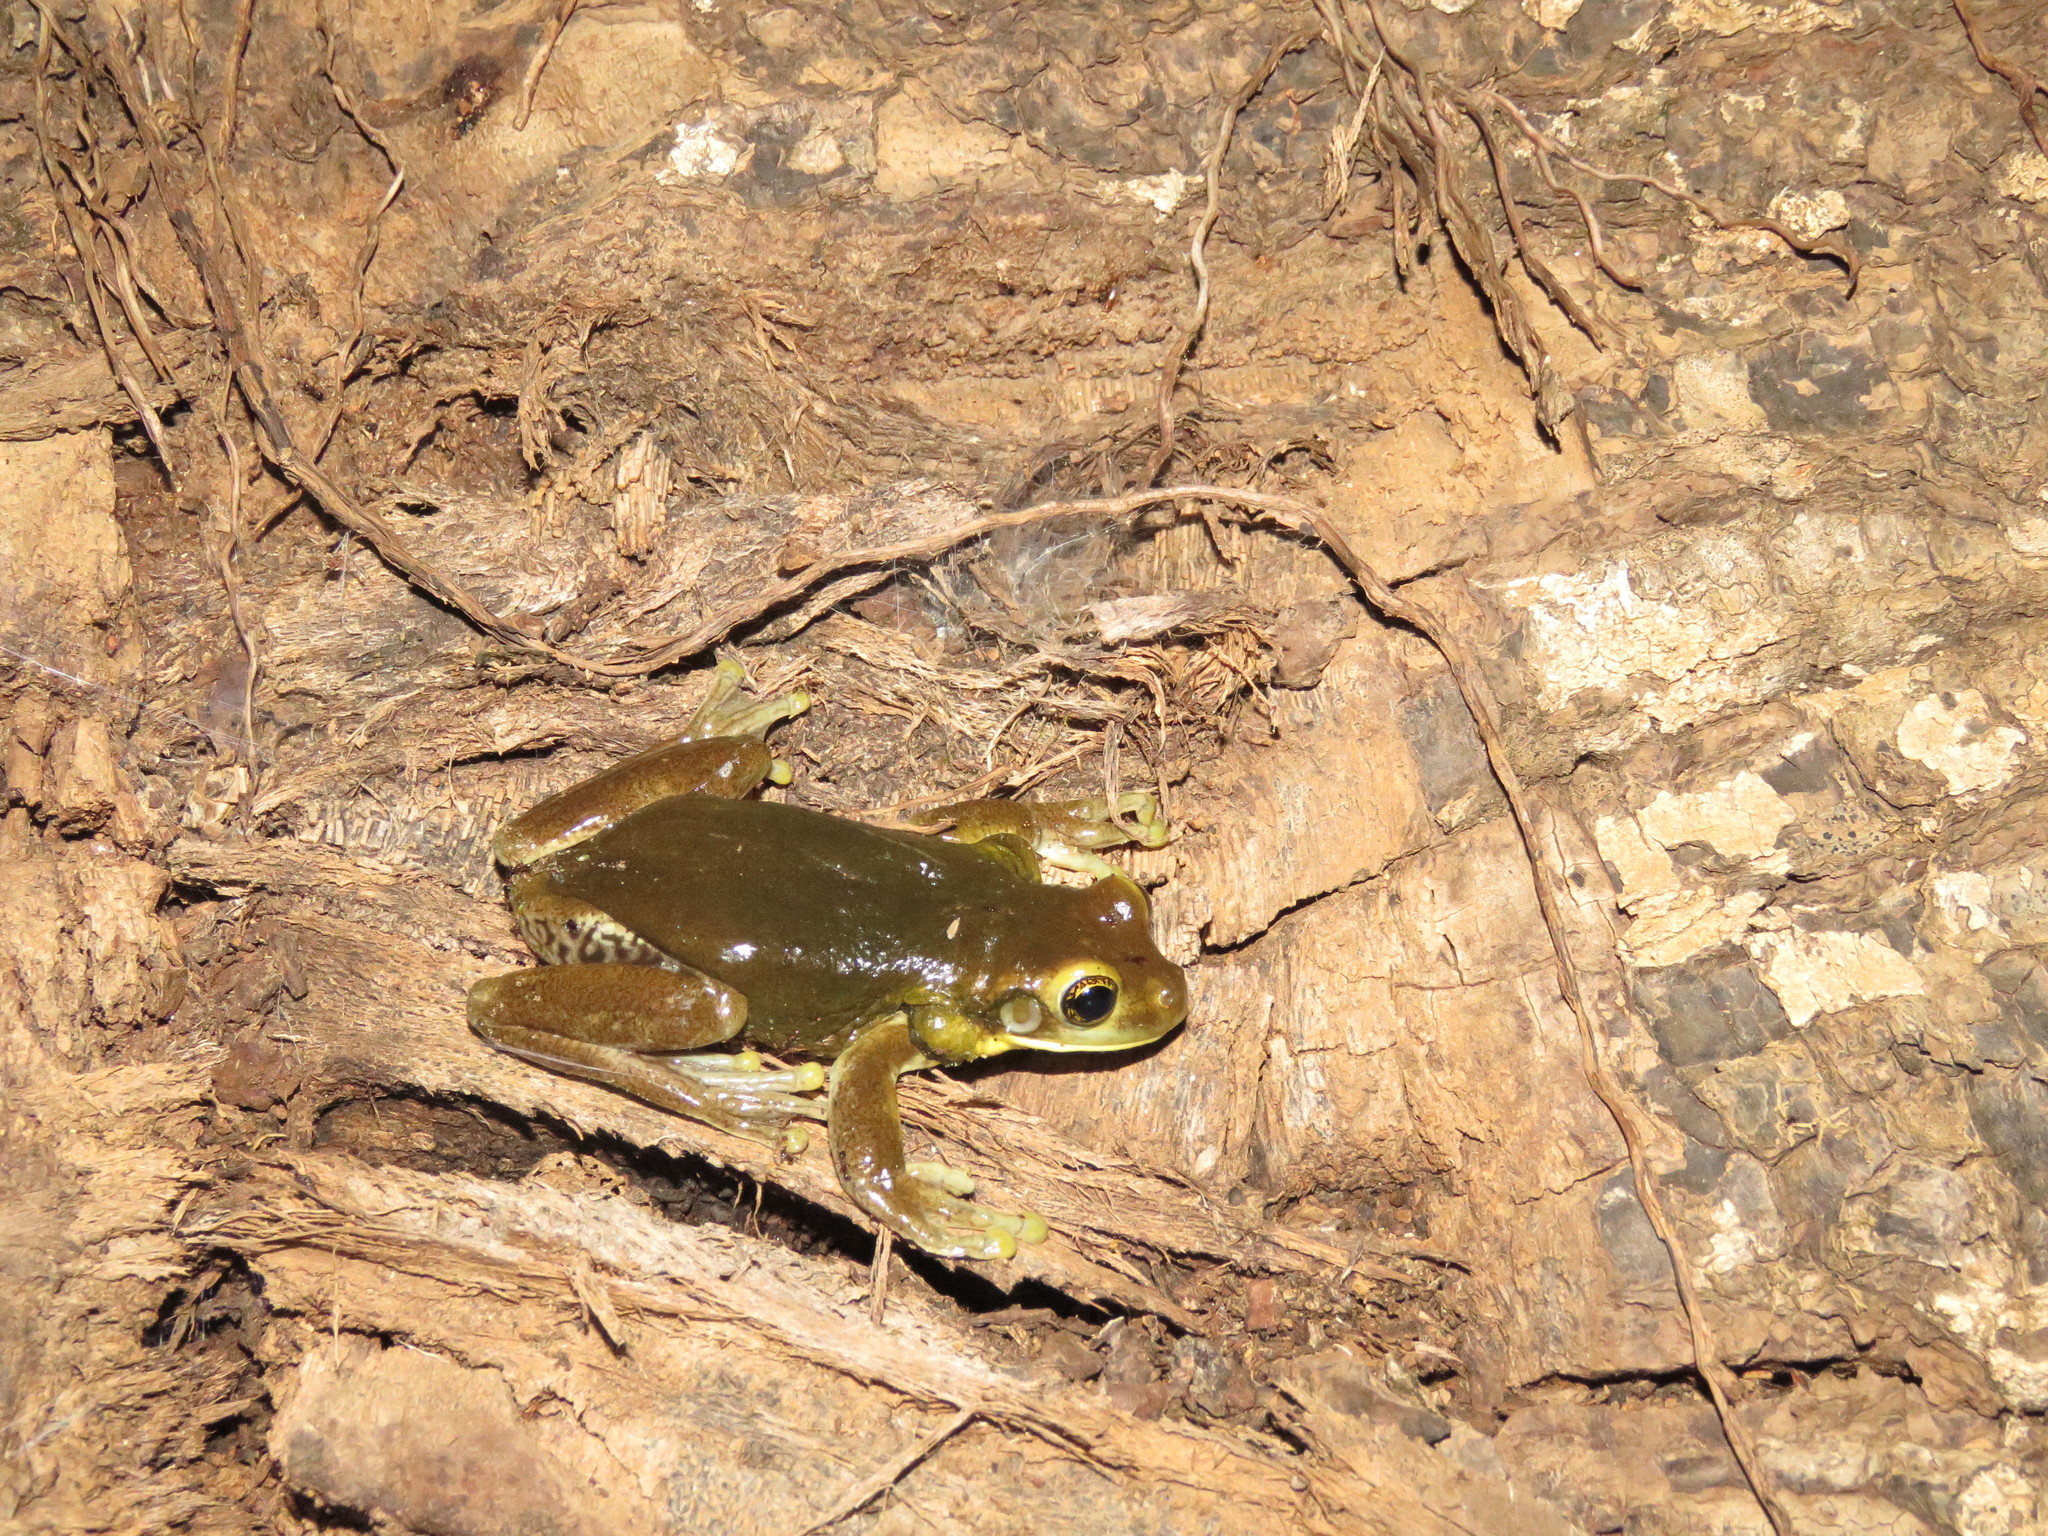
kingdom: Animalia
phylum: Chordata
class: Amphibia
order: Anura
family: Hylidae
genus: Trachycephalus
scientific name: Trachycephalus typhonius
